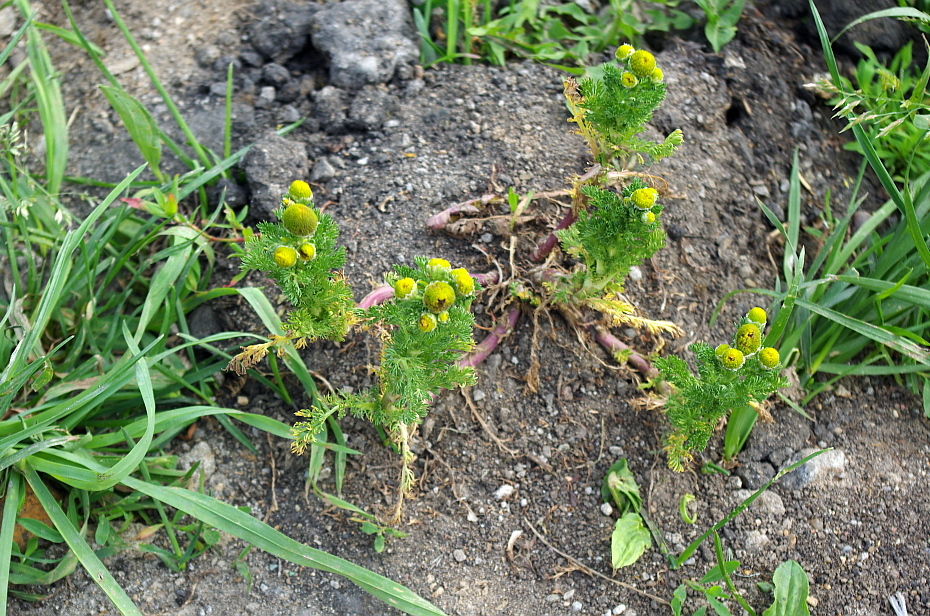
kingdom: Plantae
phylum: Tracheophyta
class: Magnoliopsida
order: Asterales
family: Asteraceae
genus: Matricaria
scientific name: Matricaria discoidea
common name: Disc mayweed
